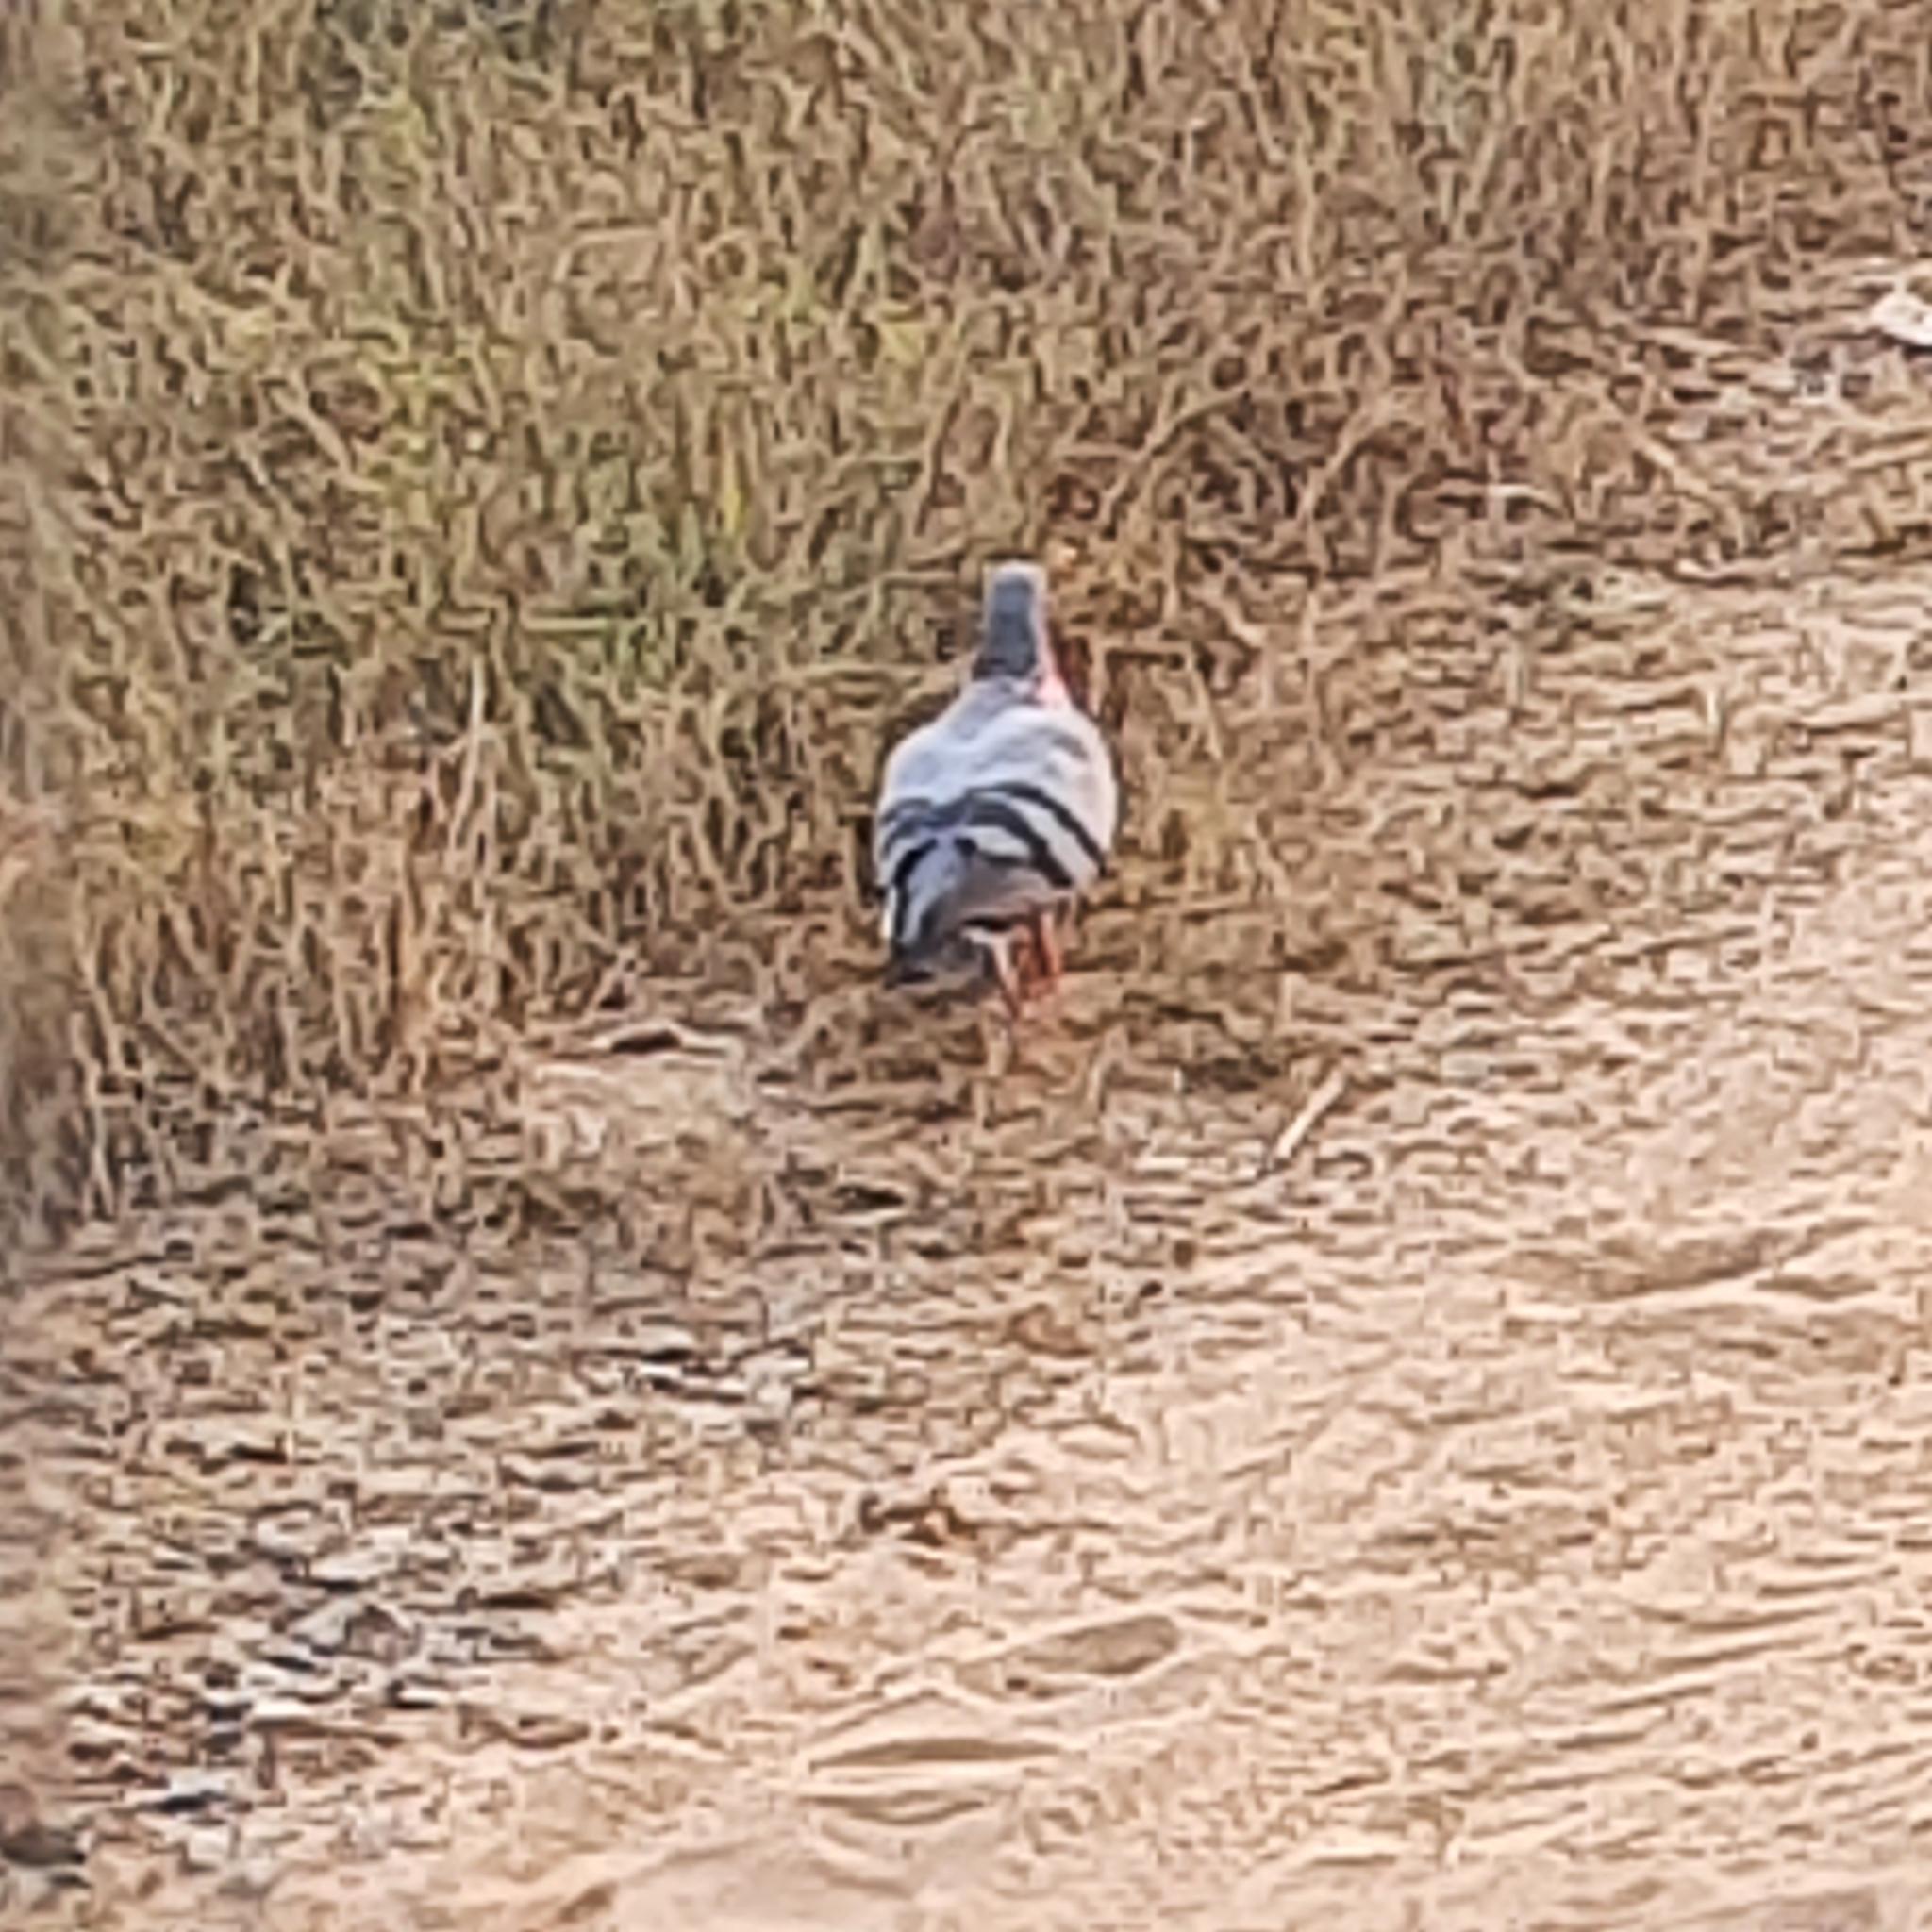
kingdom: Animalia
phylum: Chordata
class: Aves
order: Columbiformes
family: Columbidae
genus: Columba
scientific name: Columba livia
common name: Rock pigeon
